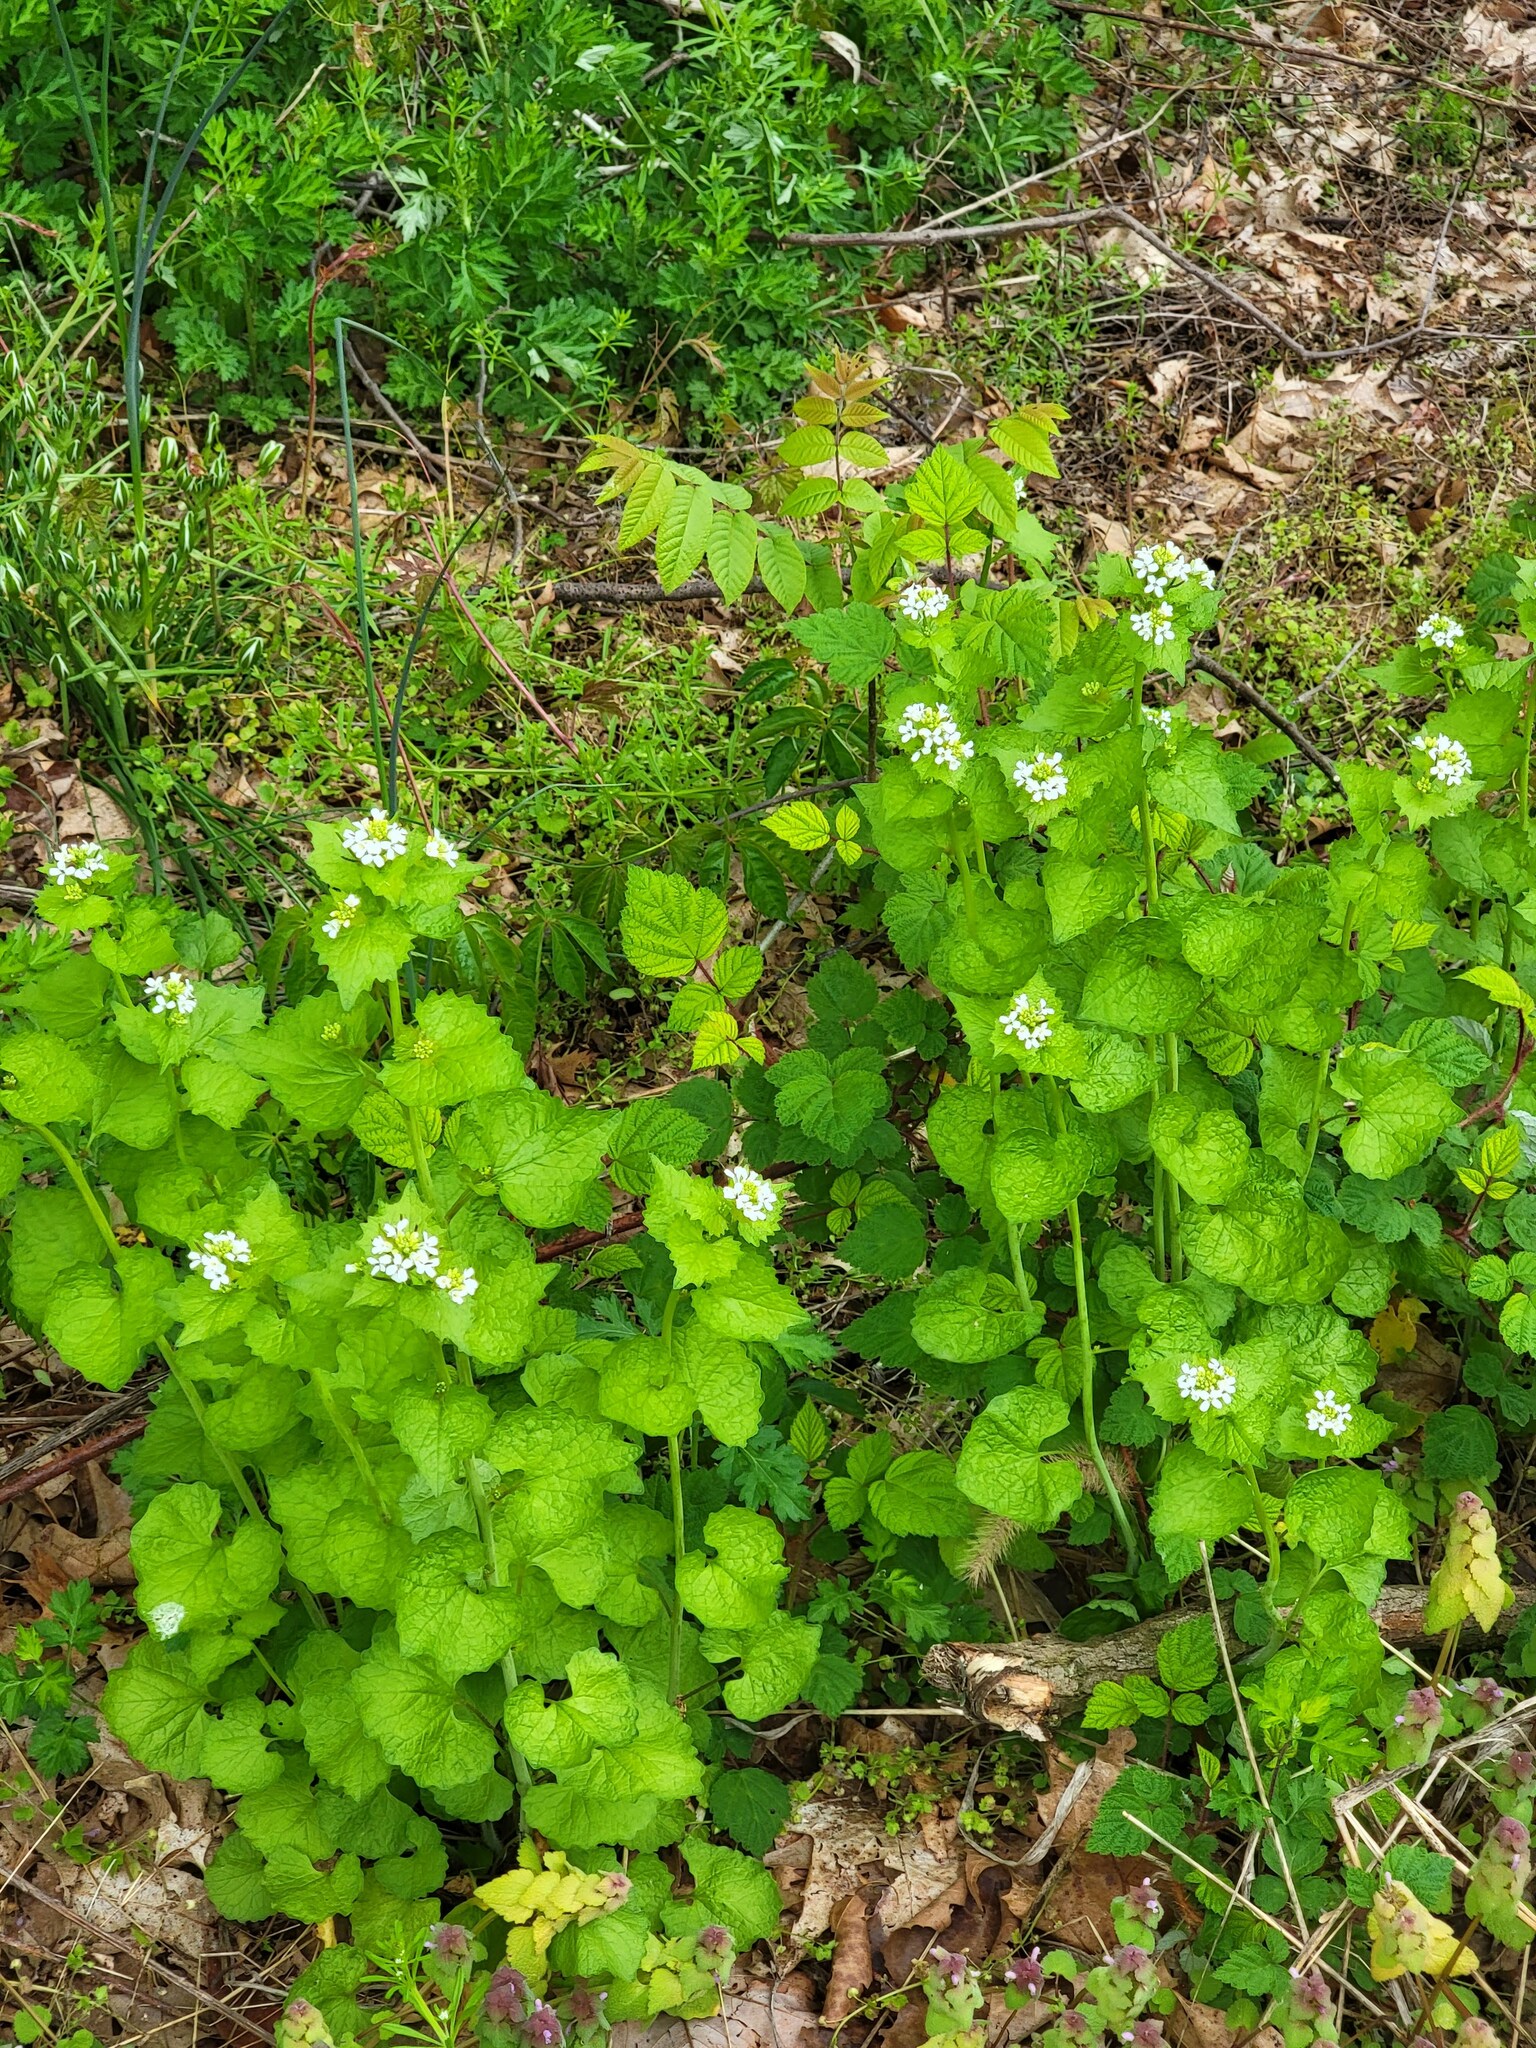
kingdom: Plantae
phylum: Tracheophyta
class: Magnoliopsida
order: Brassicales
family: Brassicaceae
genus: Alliaria
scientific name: Alliaria petiolata
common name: Garlic mustard
